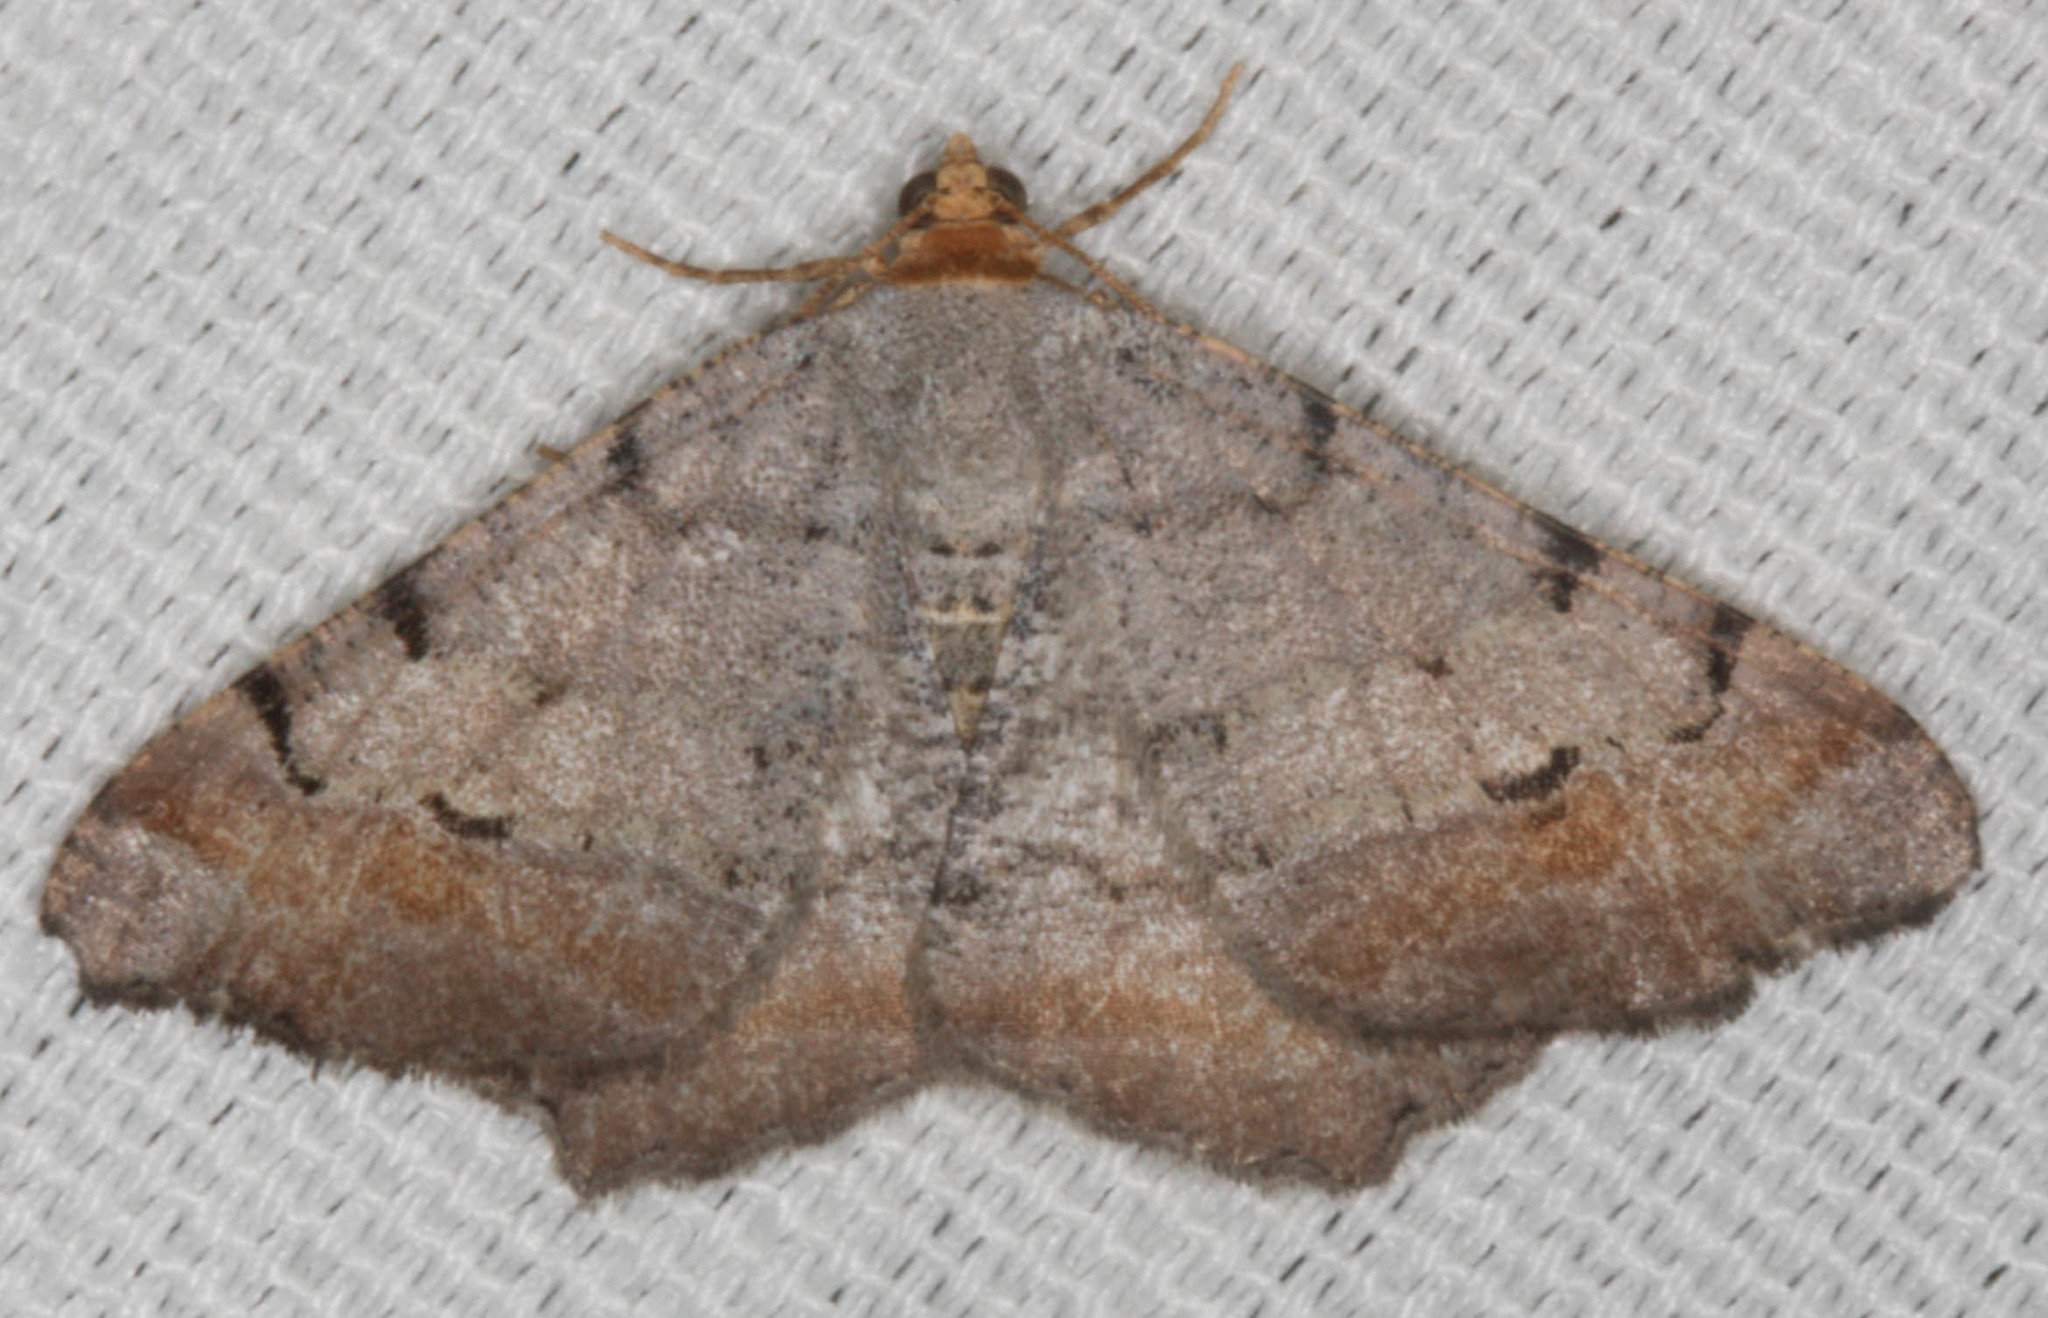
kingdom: Animalia
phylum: Arthropoda
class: Insecta
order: Lepidoptera
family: Geometridae
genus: Macaria
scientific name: Macaria adonis
